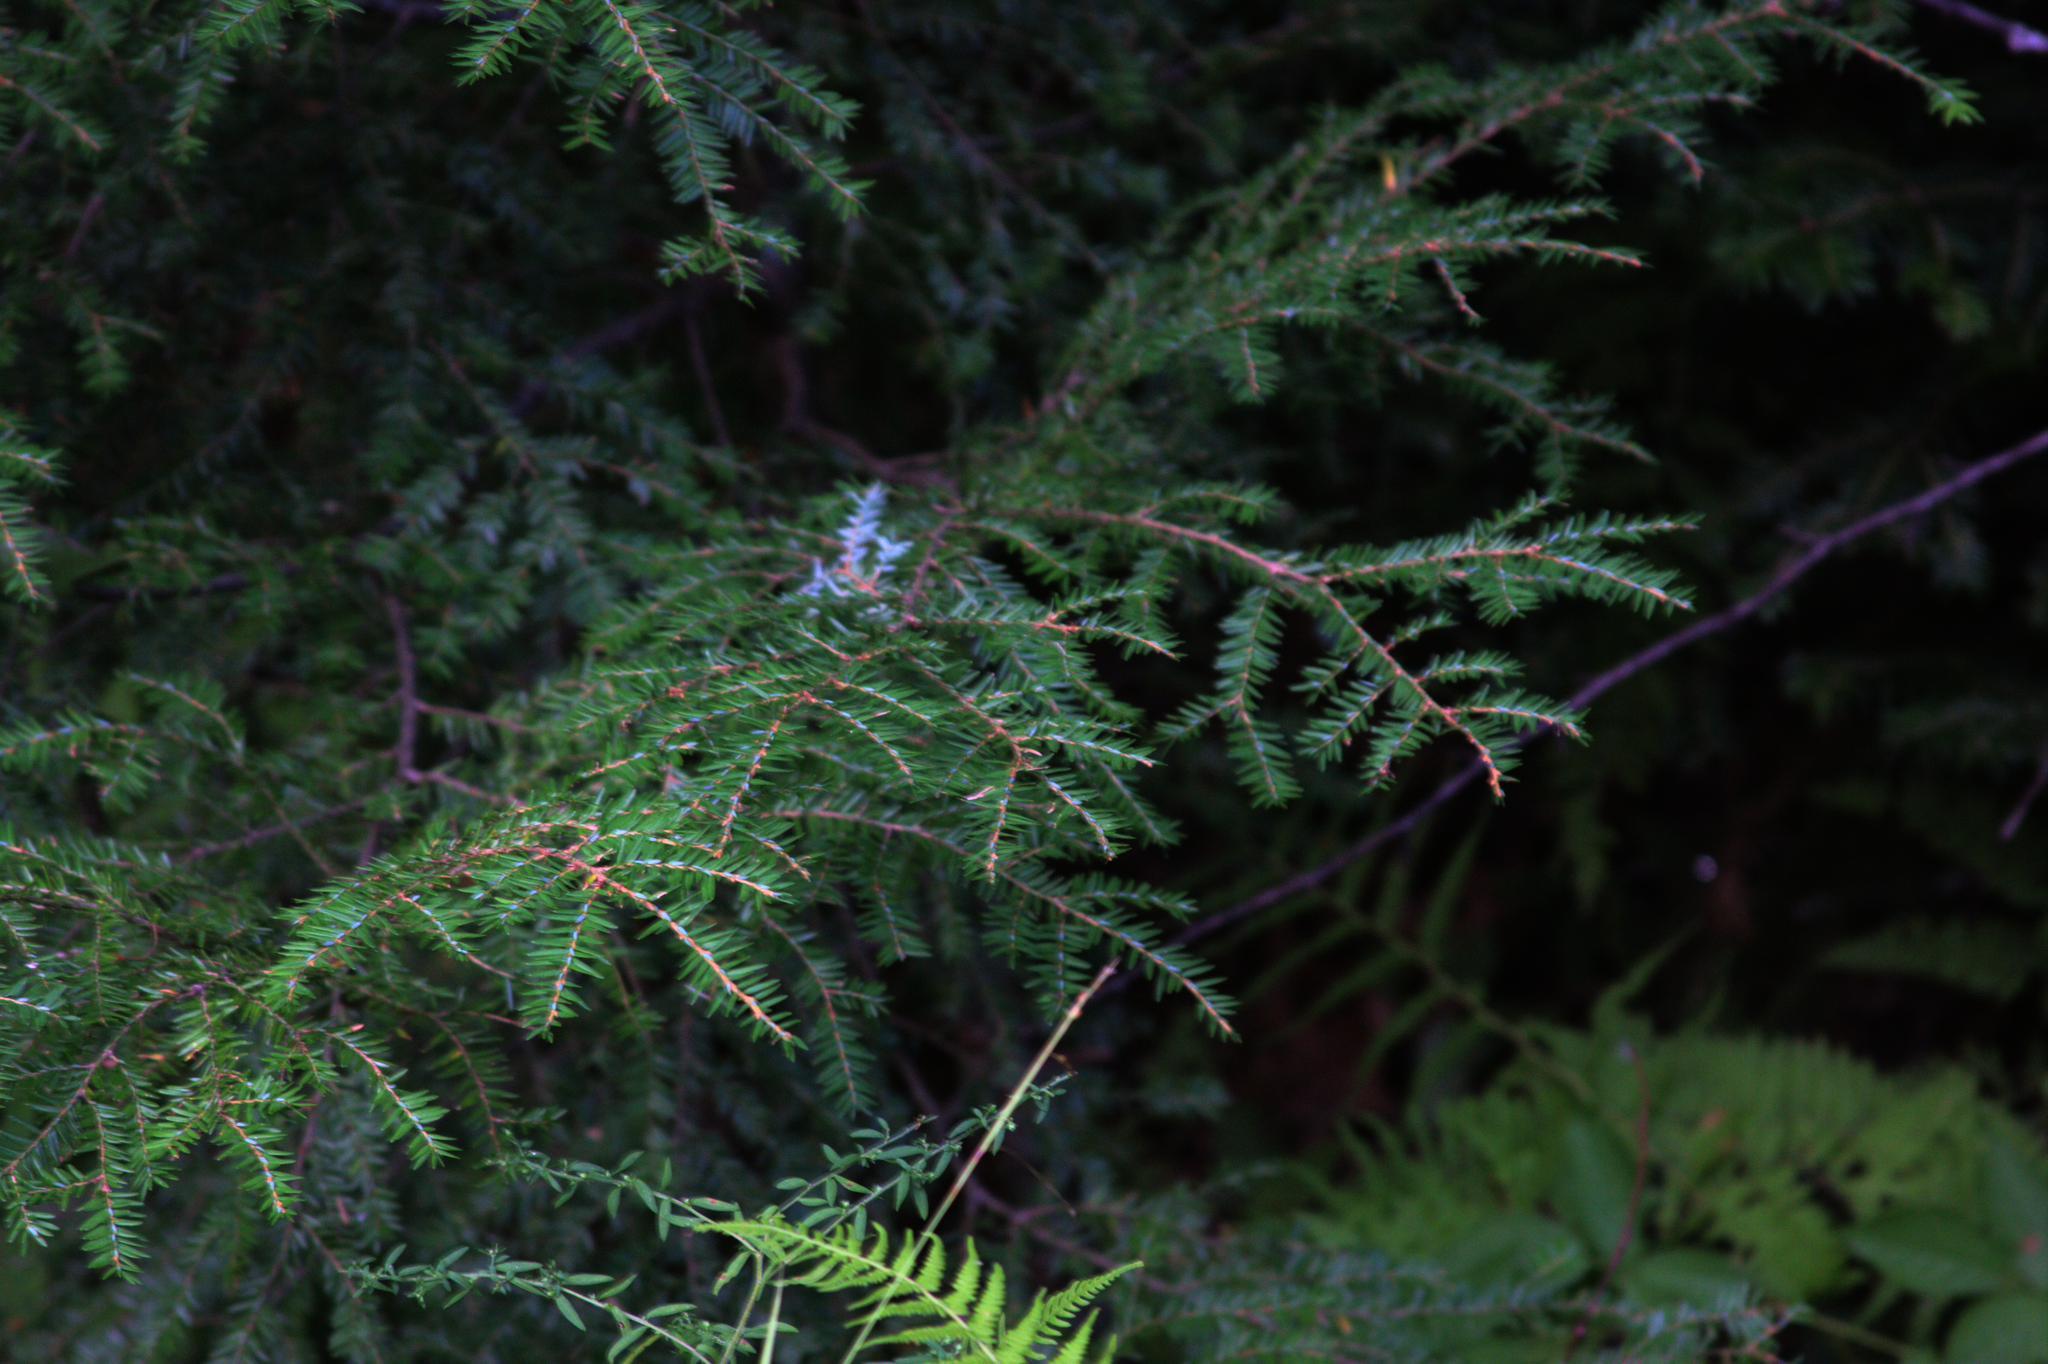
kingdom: Plantae
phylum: Tracheophyta
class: Pinopsida
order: Pinales
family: Pinaceae
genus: Tsuga
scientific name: Tsuga canadensis
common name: Eastern hemlock
